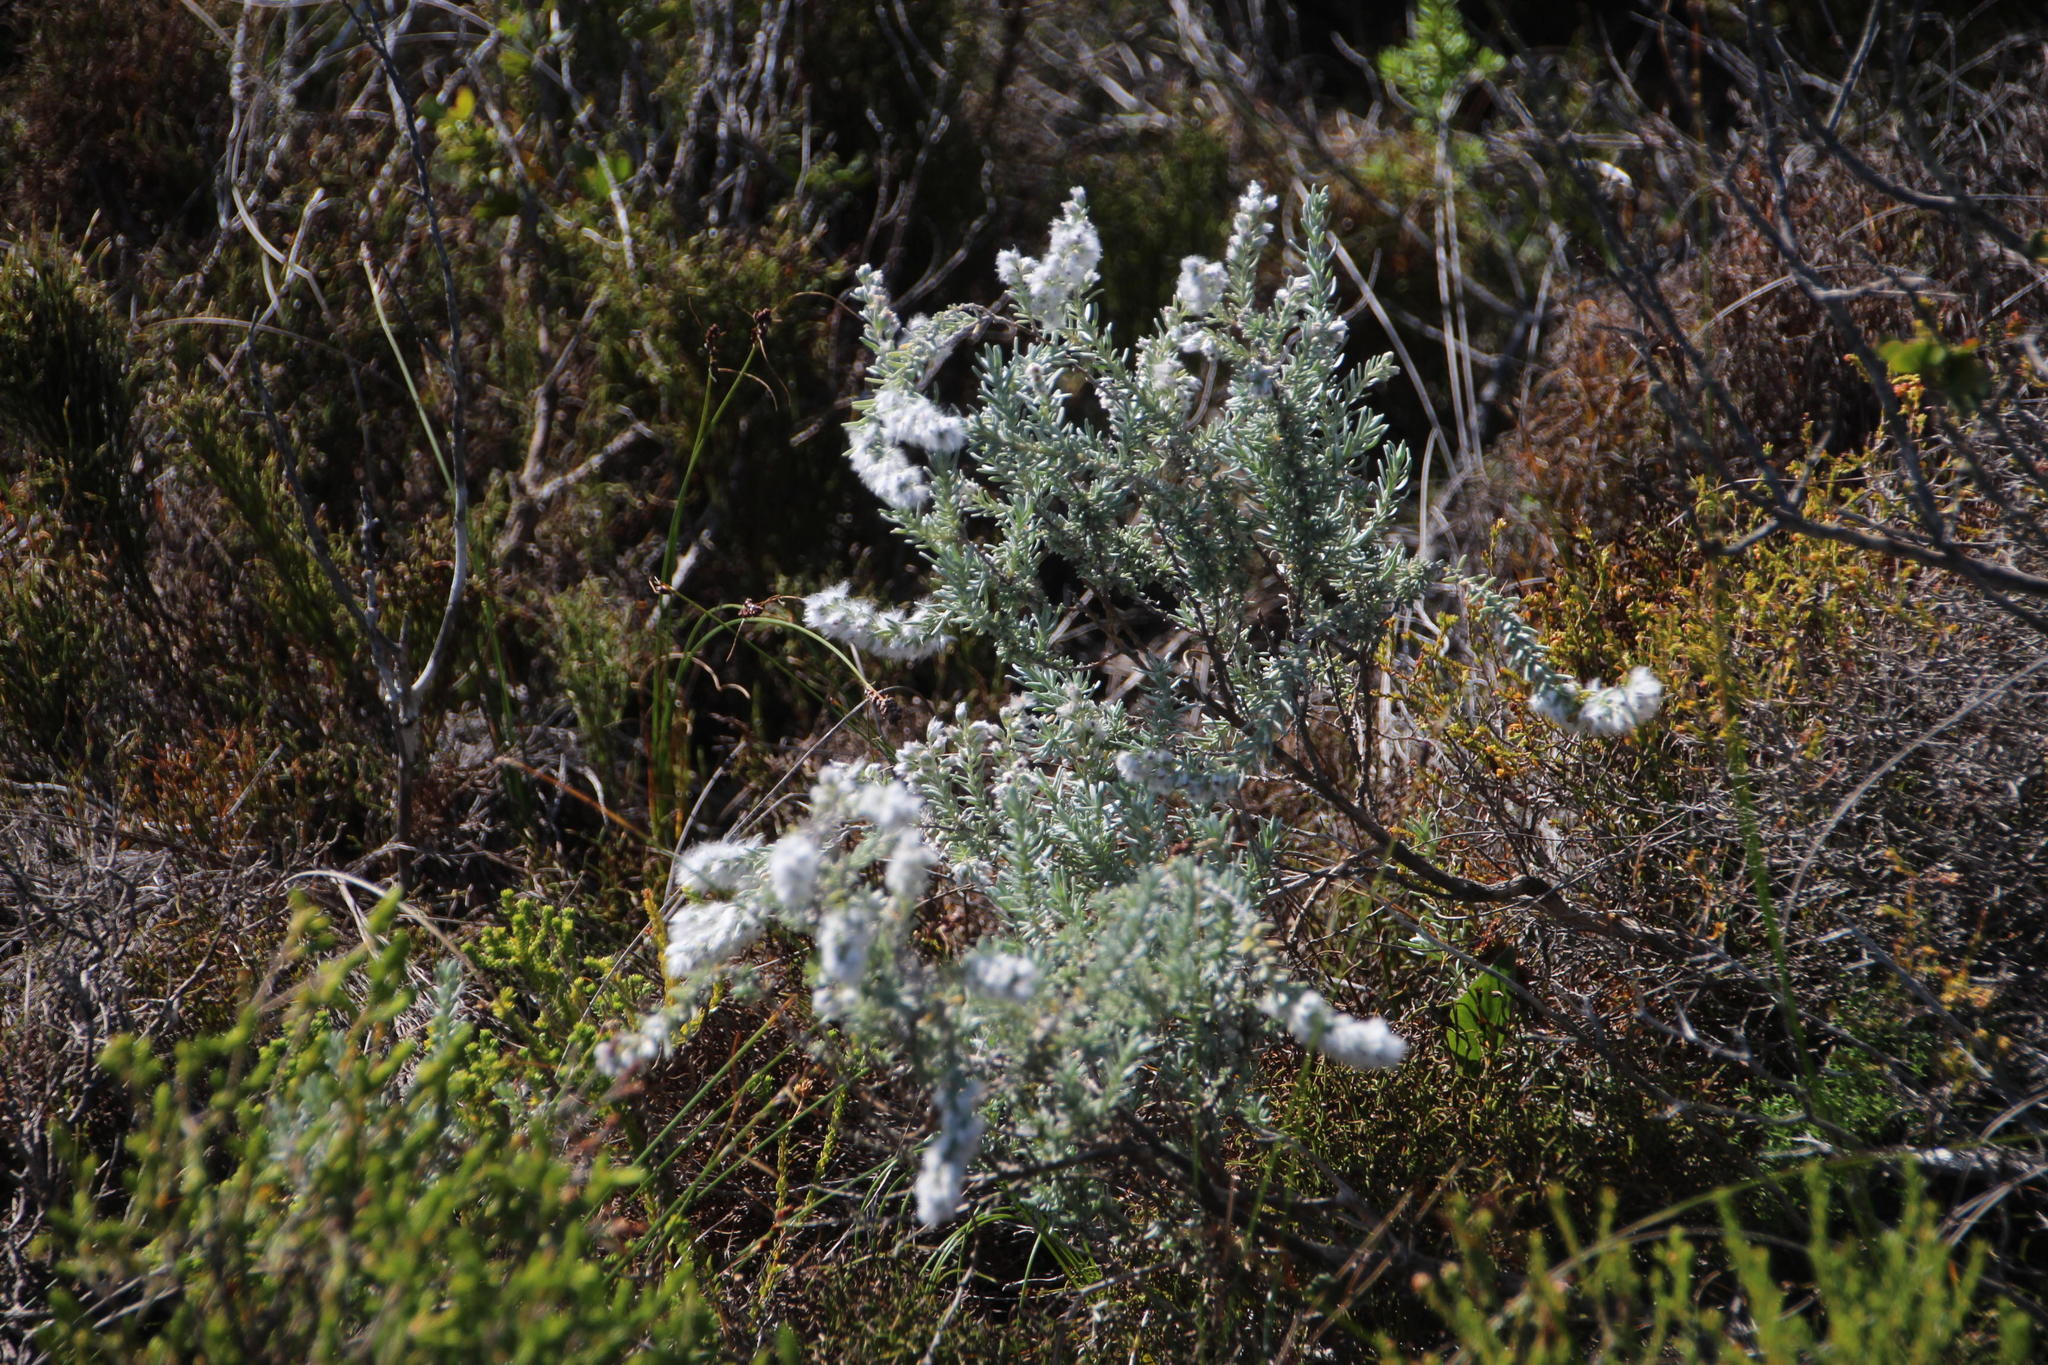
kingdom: Plantae
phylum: Tracheophyta
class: Magnoliopsida
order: Asterales
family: Asteraceae
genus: Eriocephalus
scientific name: Eriocephalus racemosus
